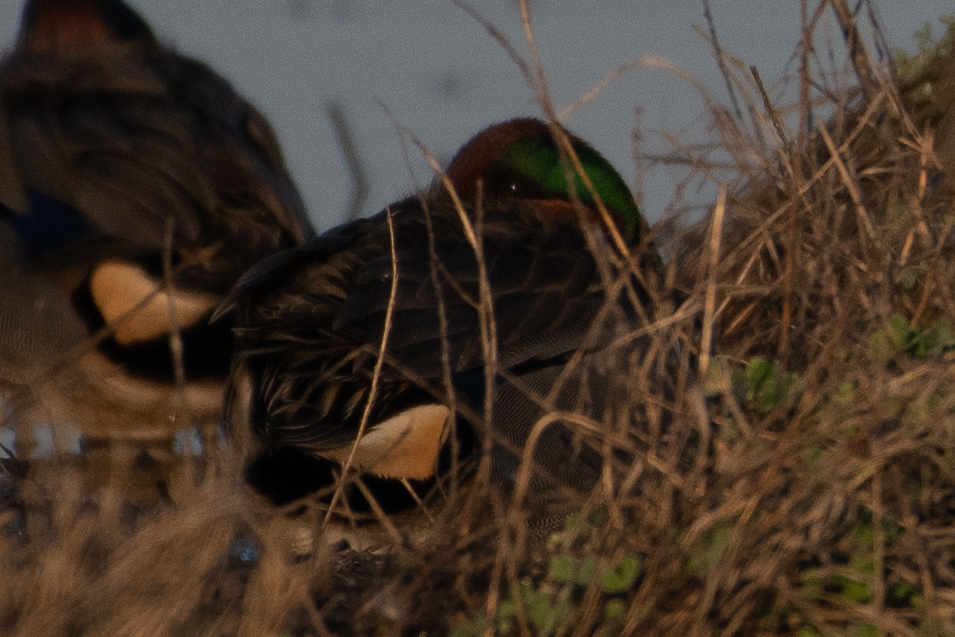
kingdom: Animalia
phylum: Chordata
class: Aves
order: Anseriformes
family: Anatidae
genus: Anas
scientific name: Anas crecca
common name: Eurasian teal
